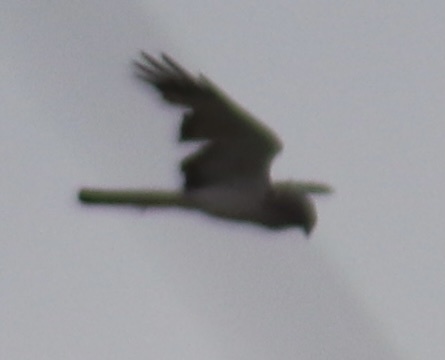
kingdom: Animalia
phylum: Chordata
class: Aves
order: Accipitriformes
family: Accipitridae
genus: Circus
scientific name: Circus cyaneus
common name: Hen harrier
